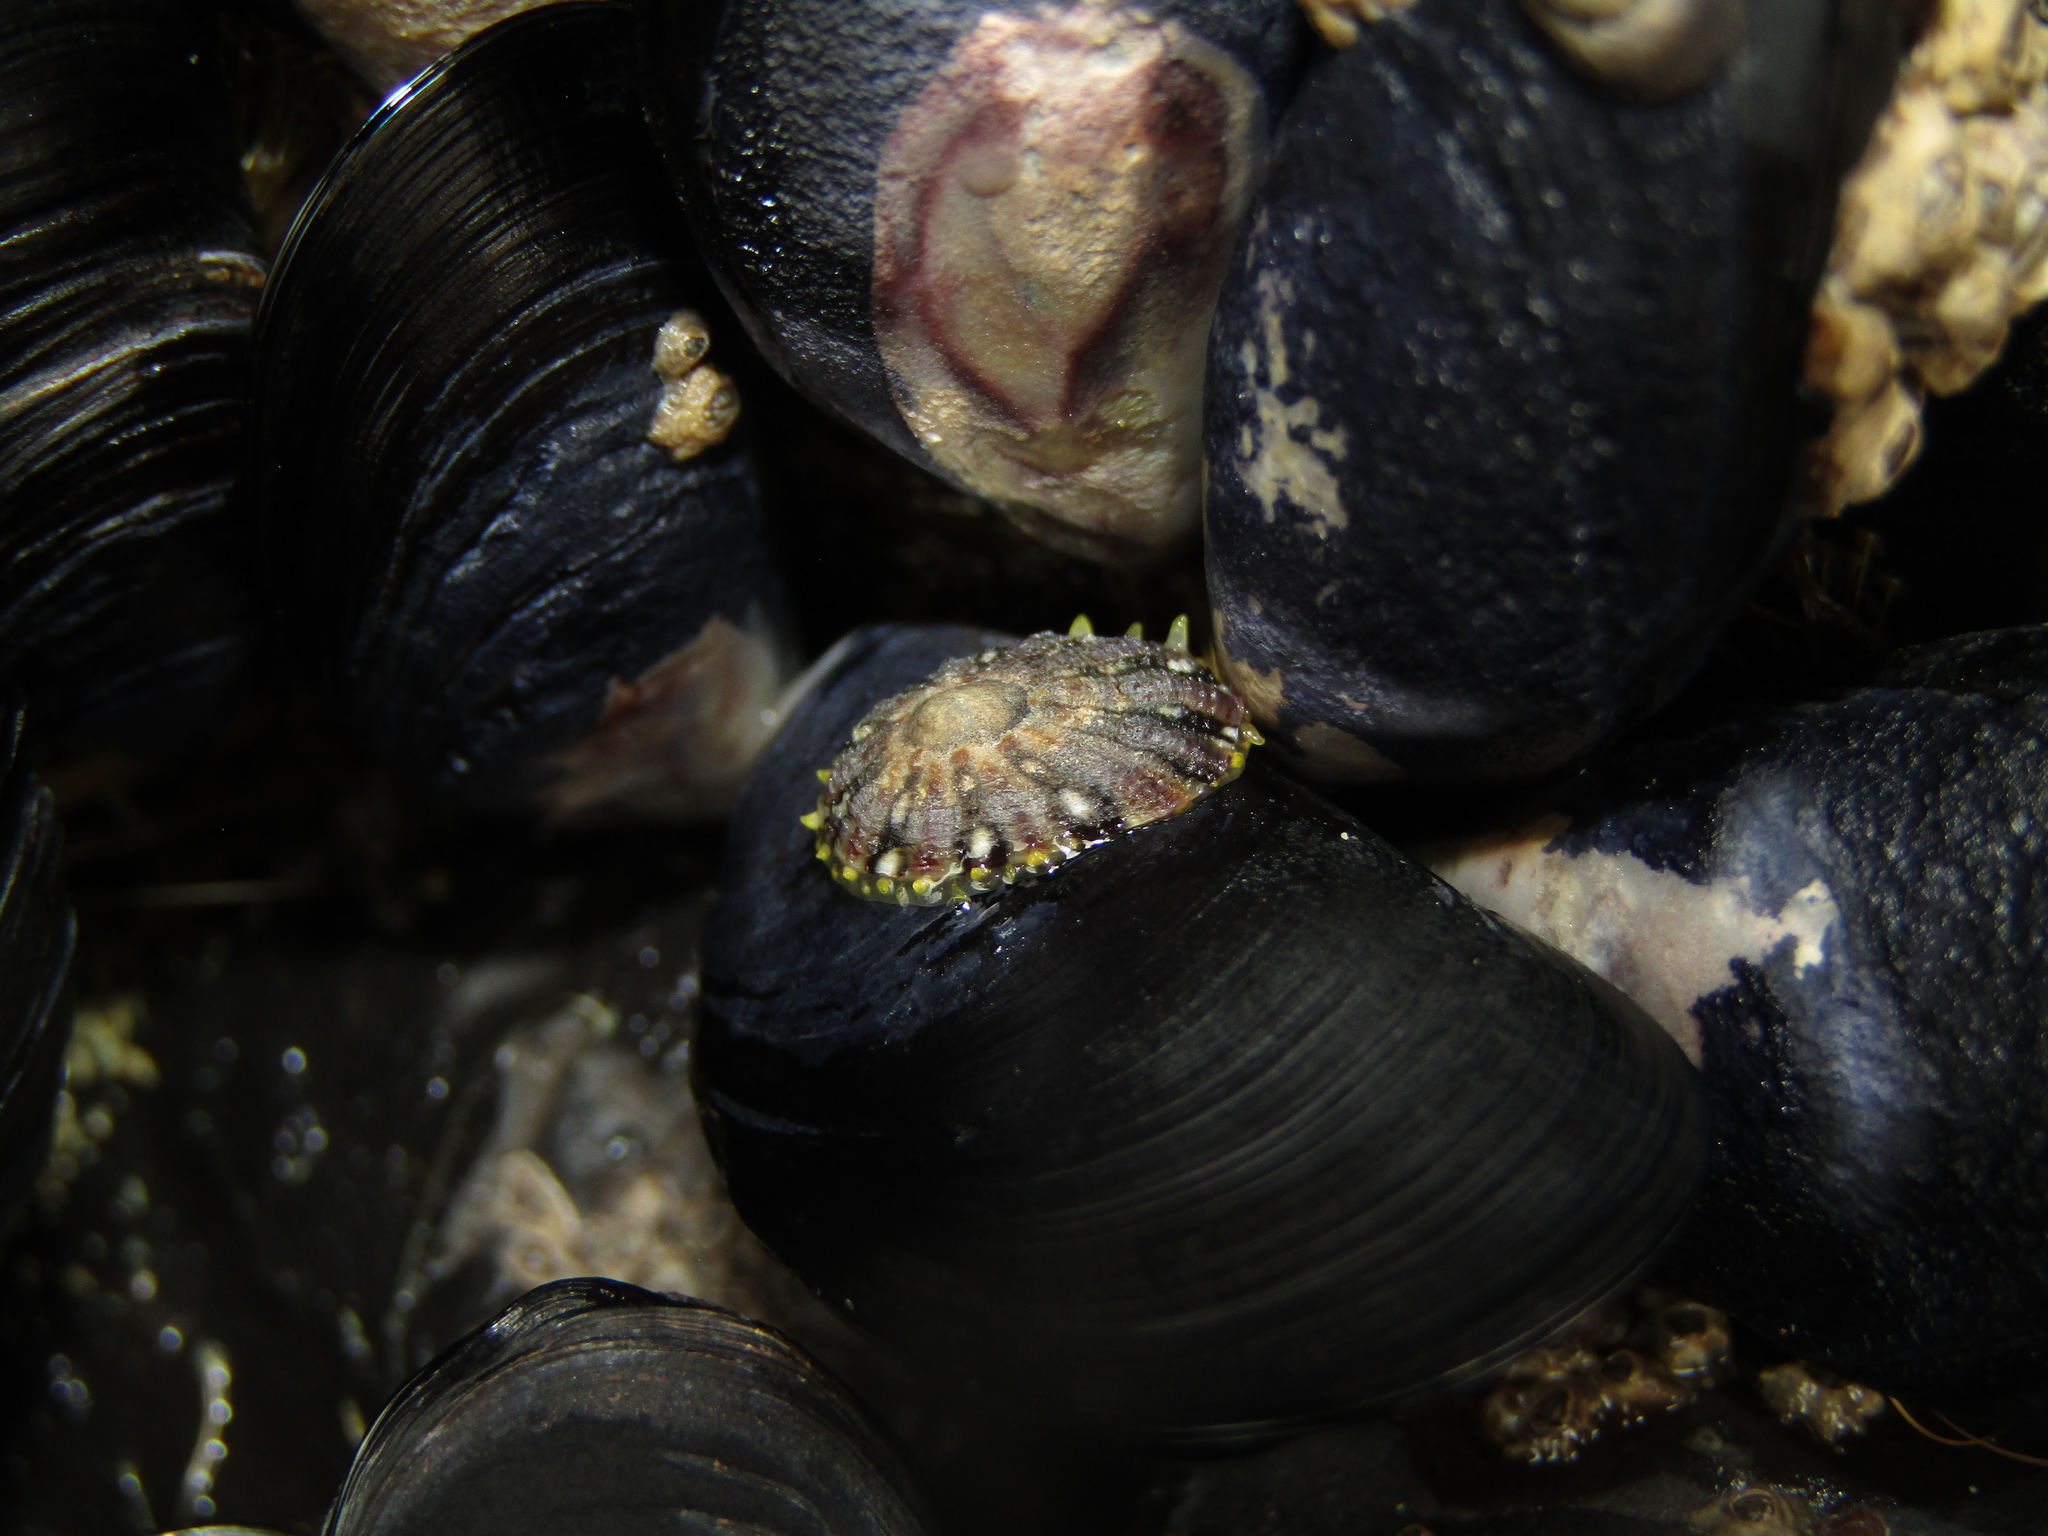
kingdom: Animalia
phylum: Mollusca
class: Gastropoda
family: Nacellidae
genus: Cellana
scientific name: Cellana ornata
